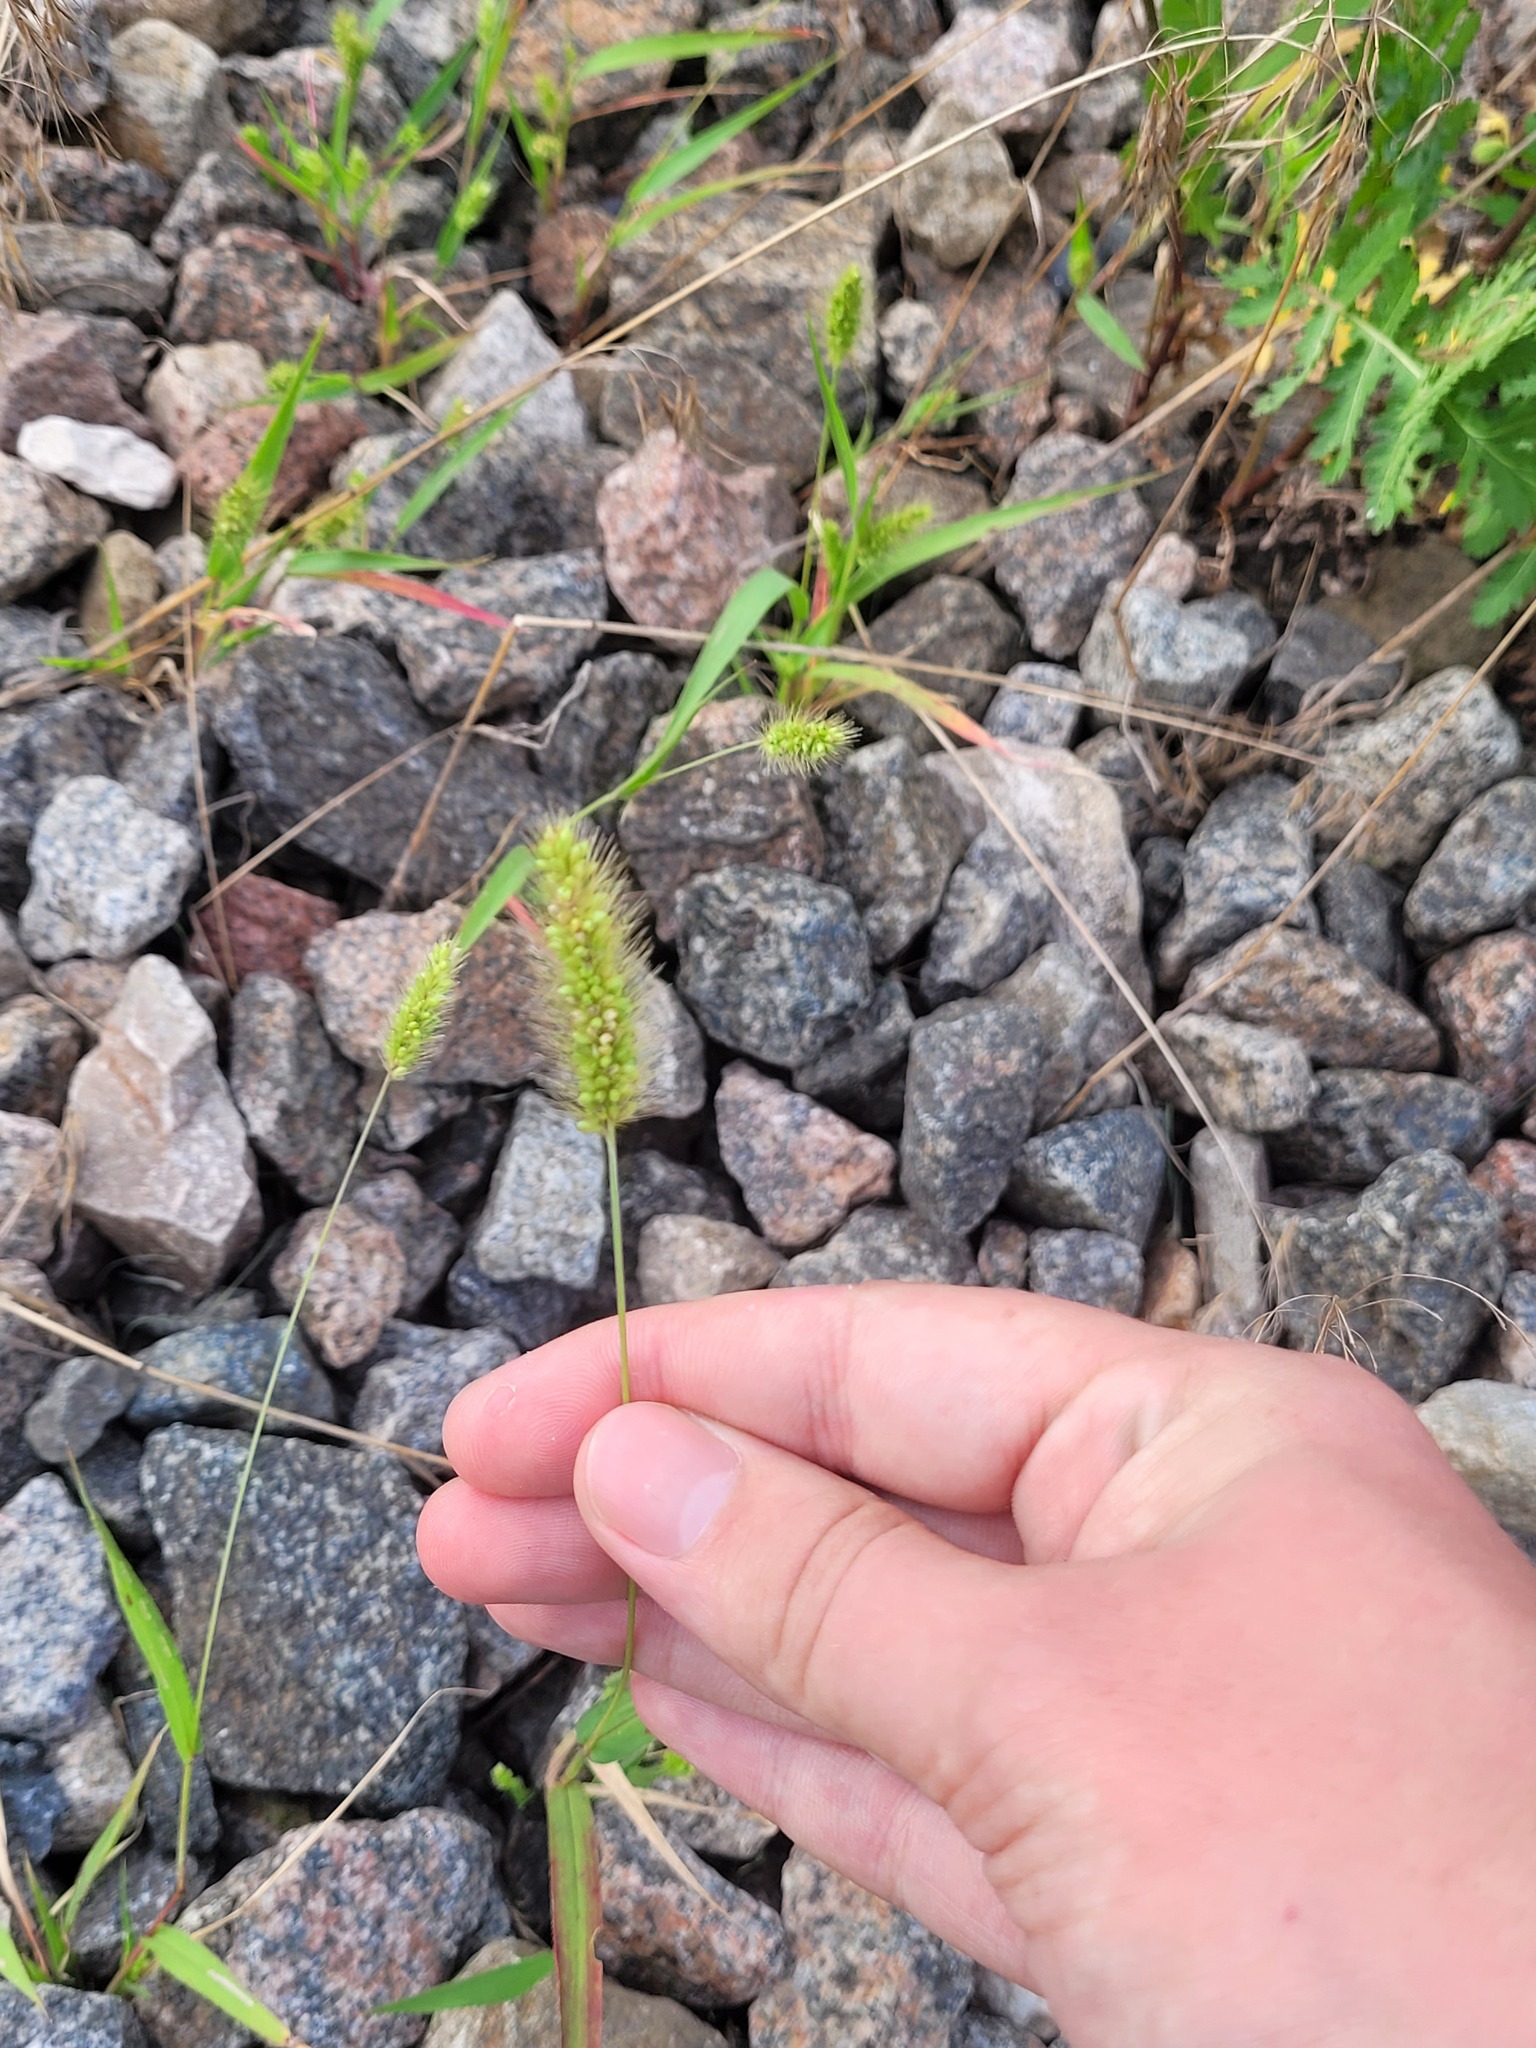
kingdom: Plantae
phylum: Tracheophyta
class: Liliopsida
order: Poales
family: Poaceae
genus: Setaria
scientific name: Setaria viridis
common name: Green bristlegrass
